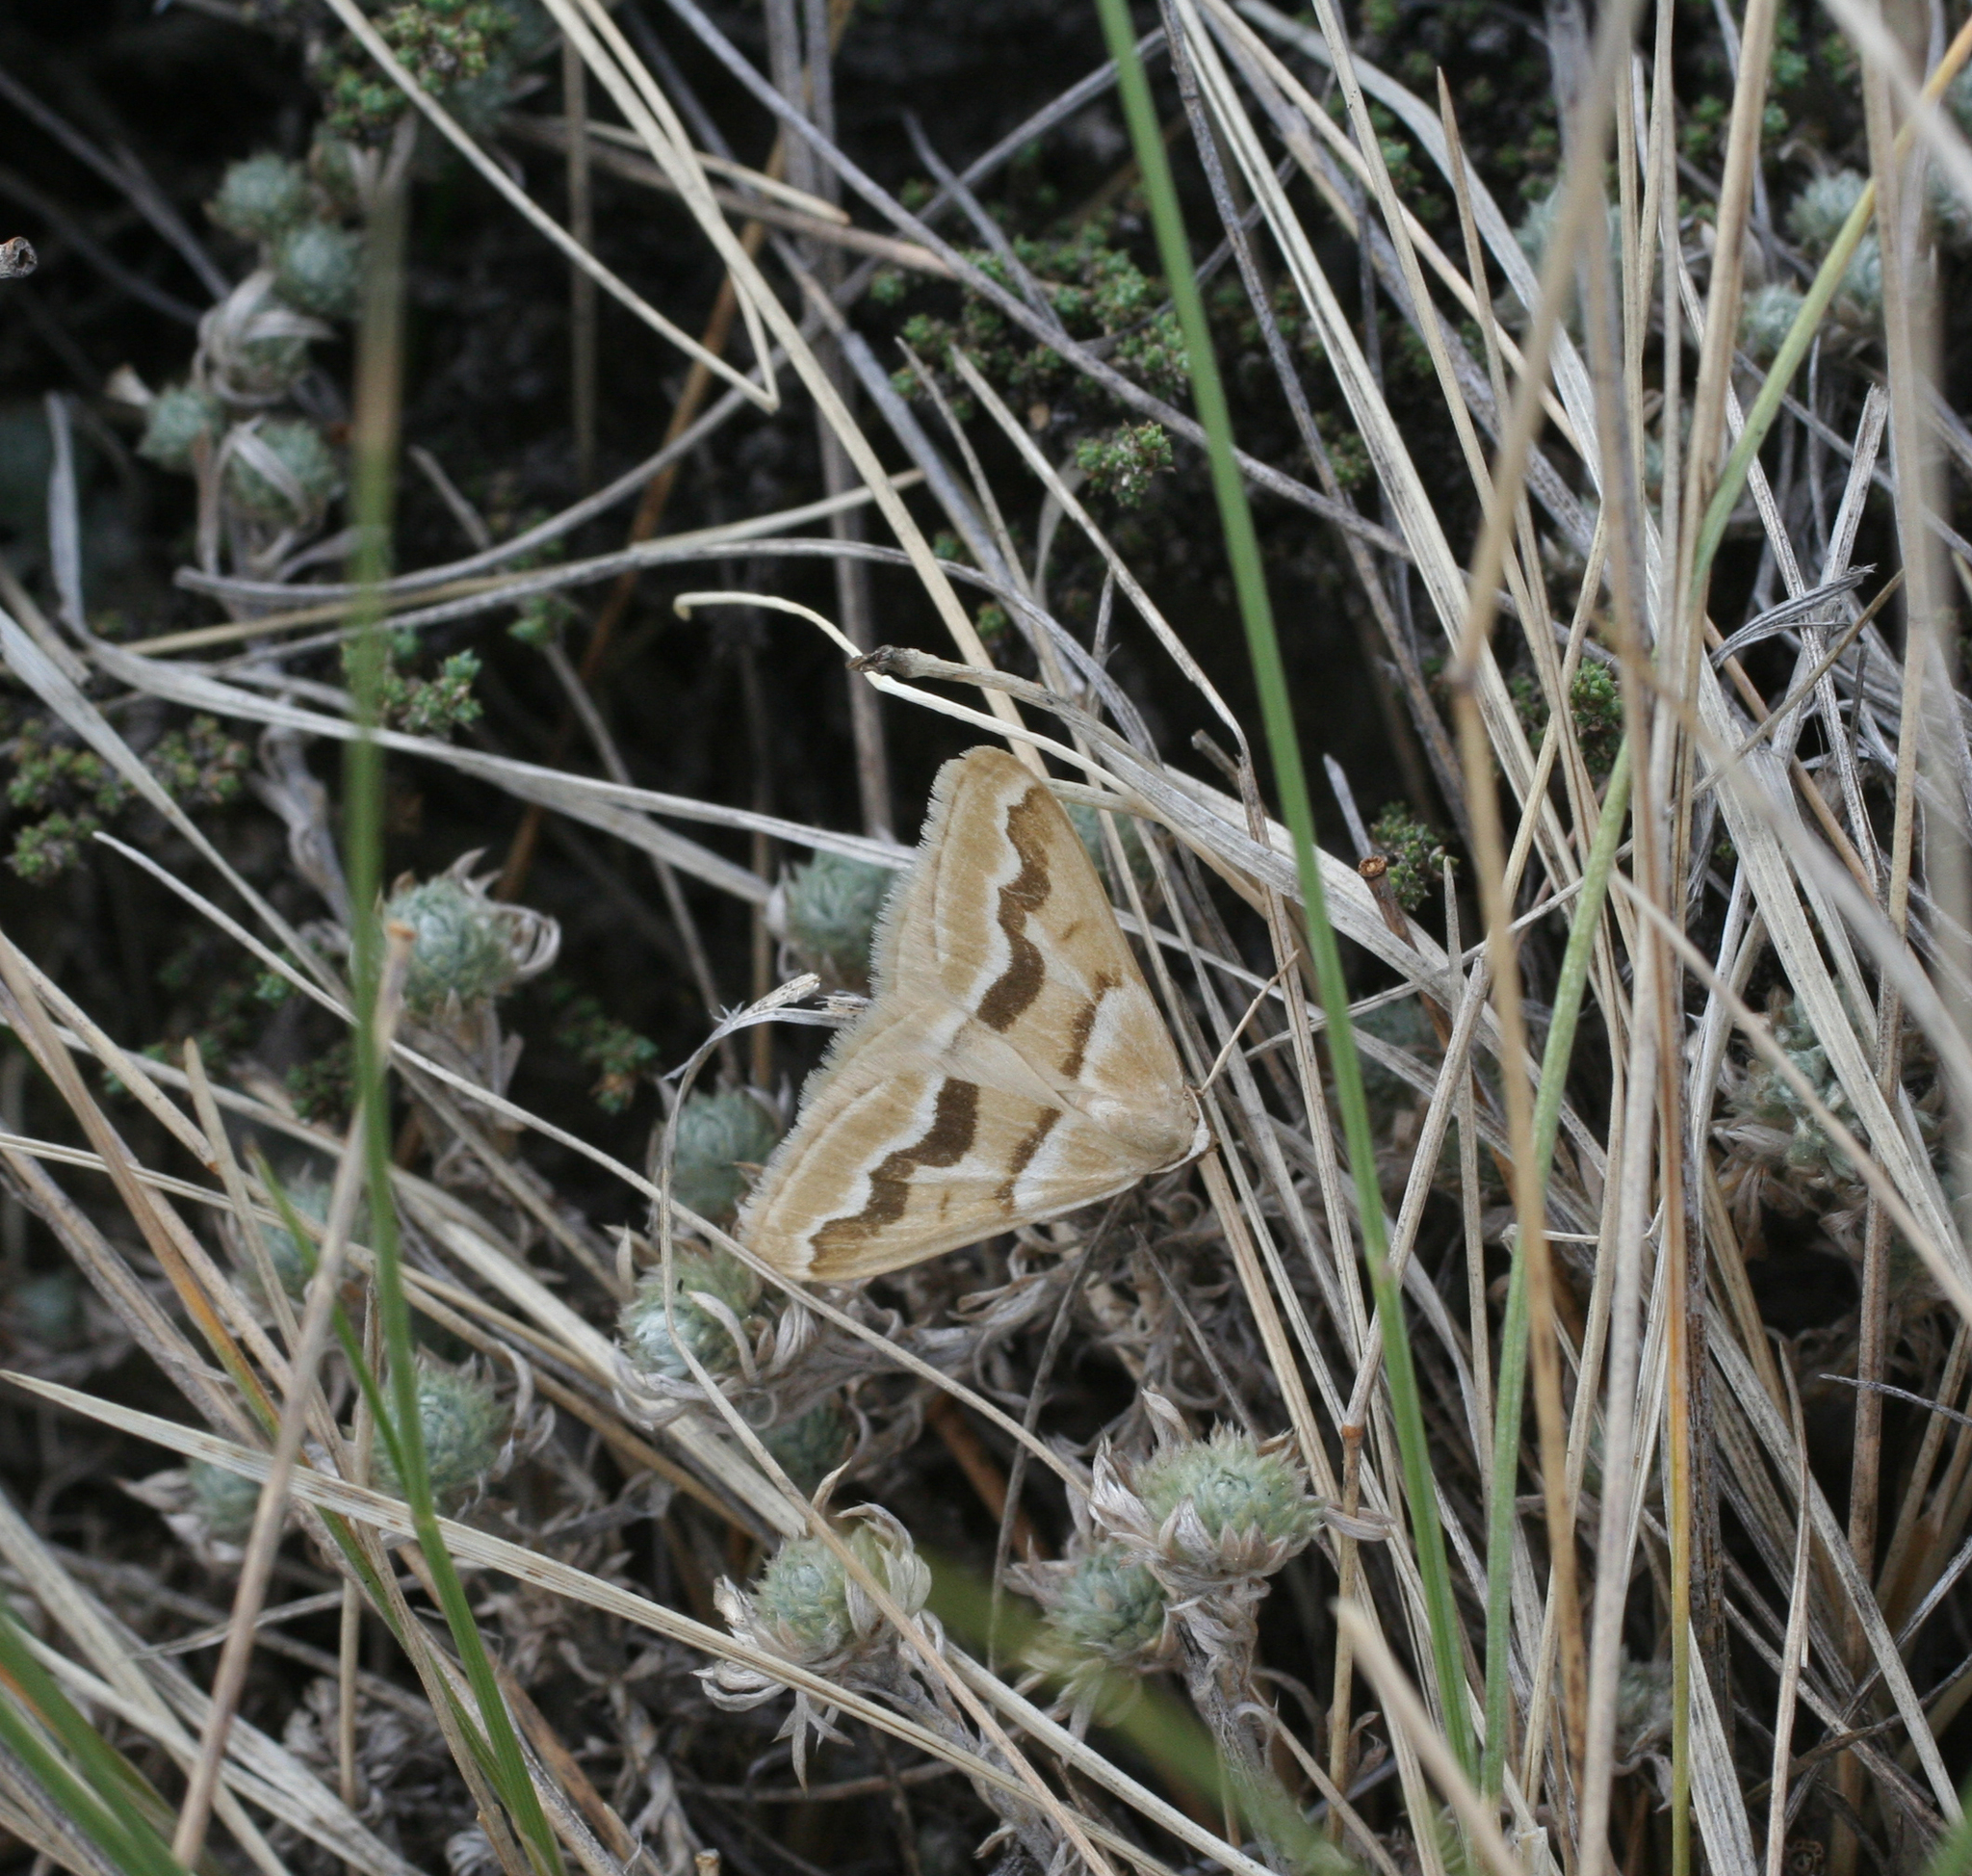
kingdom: Animalia
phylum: Arthropoda
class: Insecta
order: Lepidoptera
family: Geometridae
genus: Rhodostrophia
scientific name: Rhodostrophia jacularia
